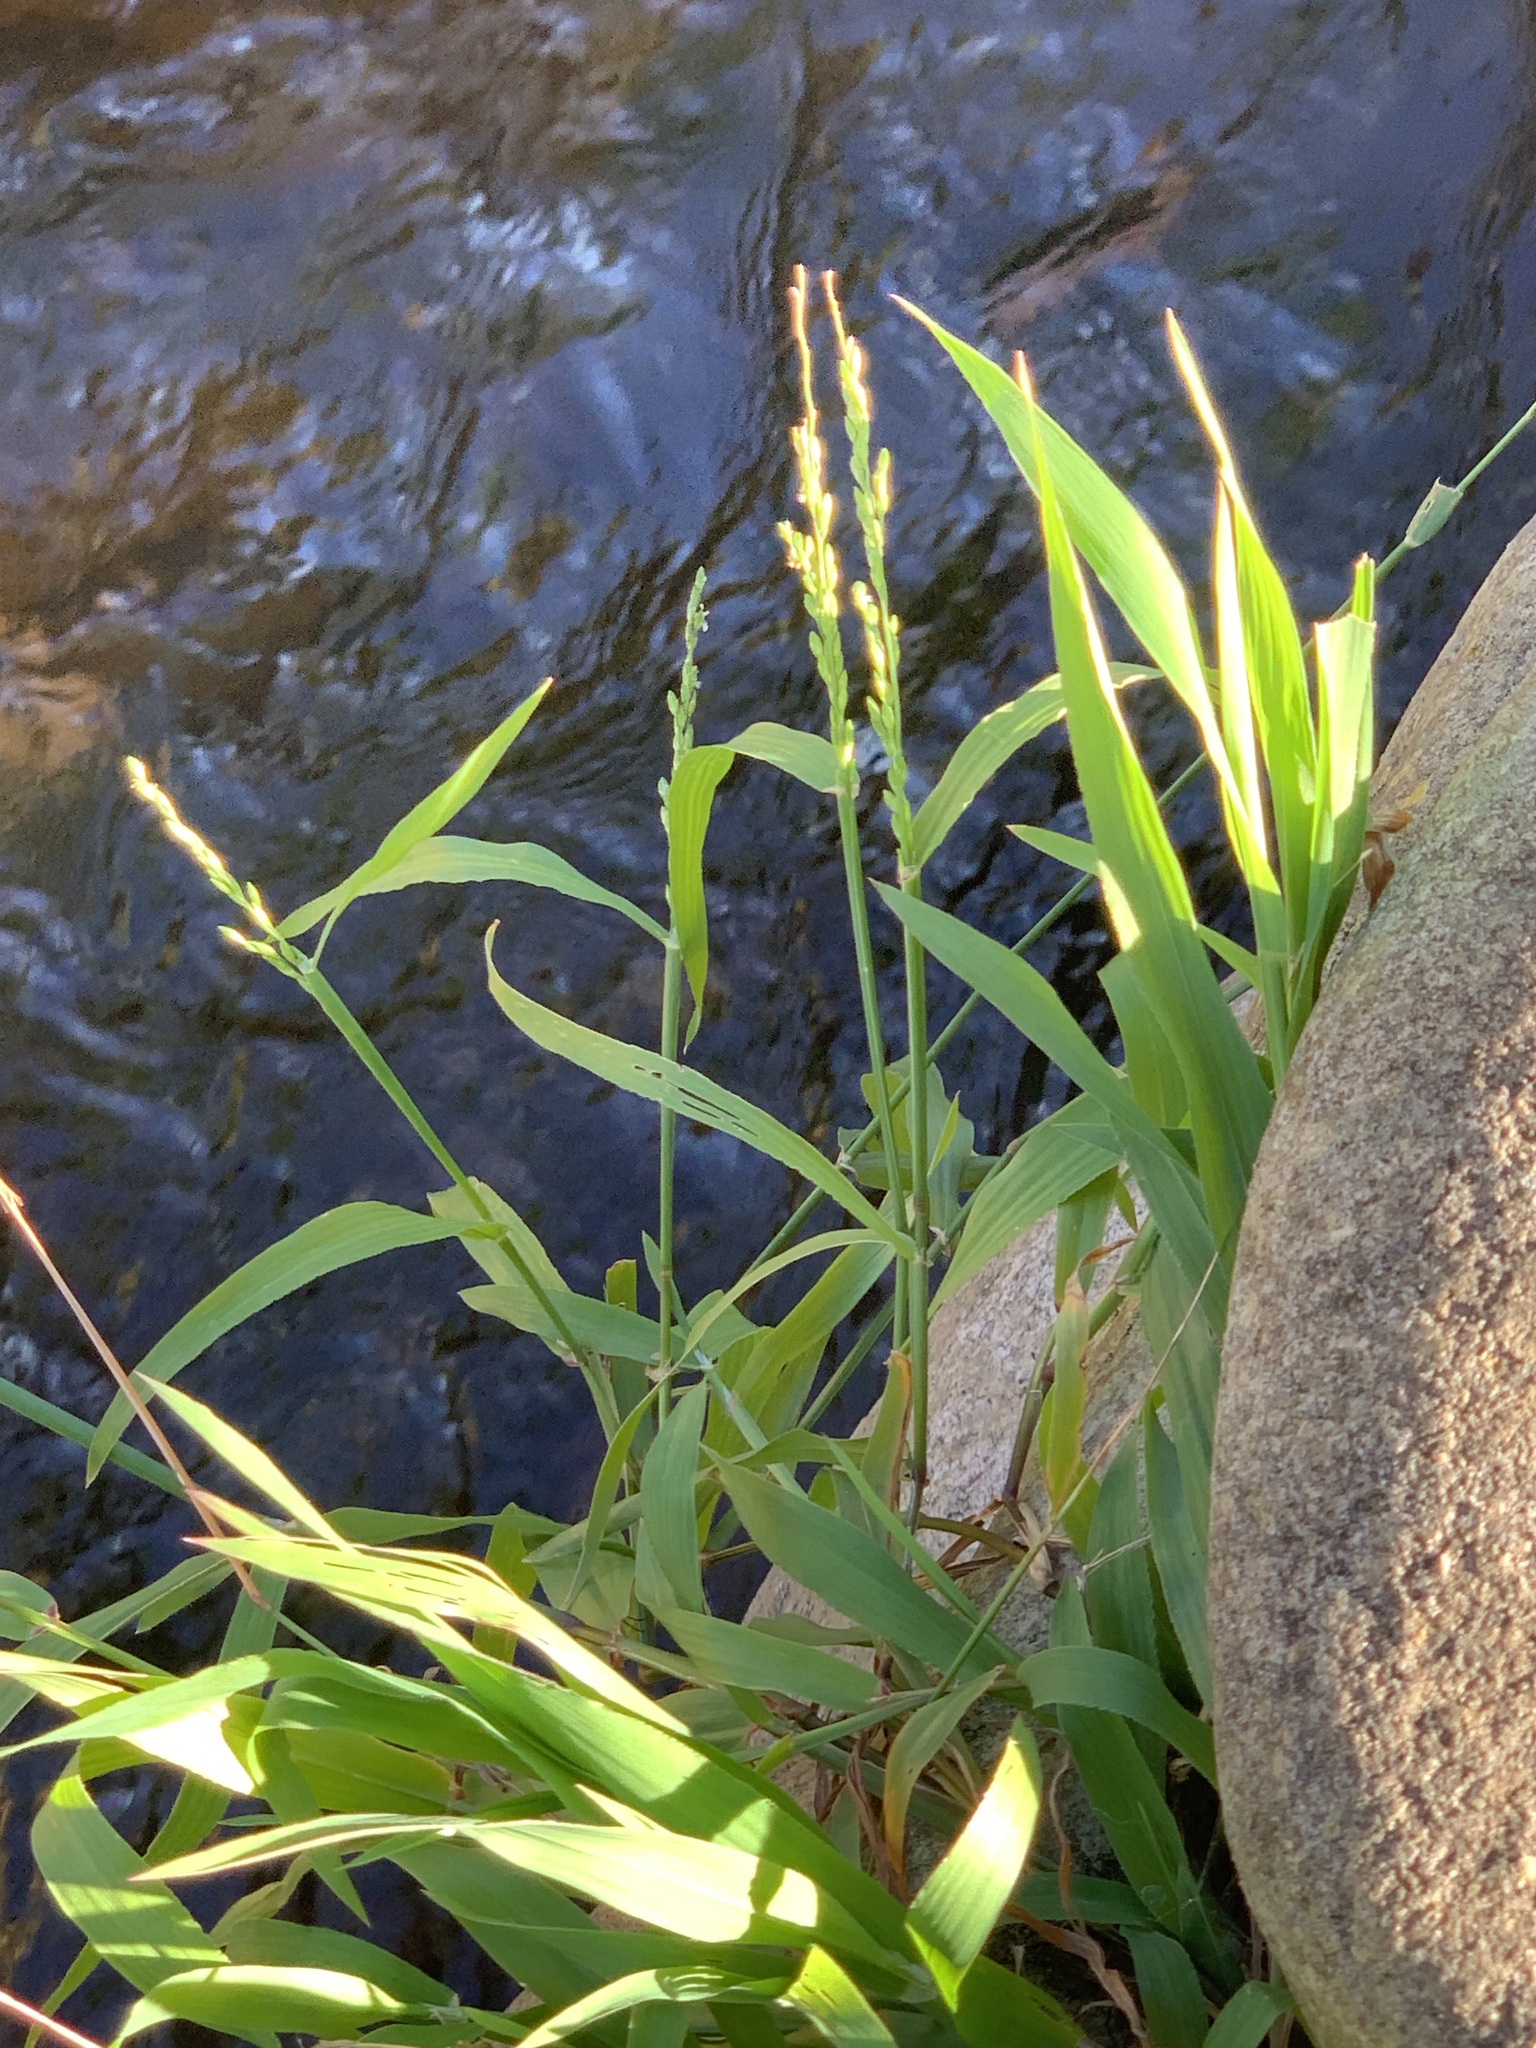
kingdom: Plantae
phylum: Tracheophyta
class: Liliopsida
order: Poales
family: Poaceae
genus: Ehrharta
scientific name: Ehrharta erecta
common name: Panic veldtgrass
